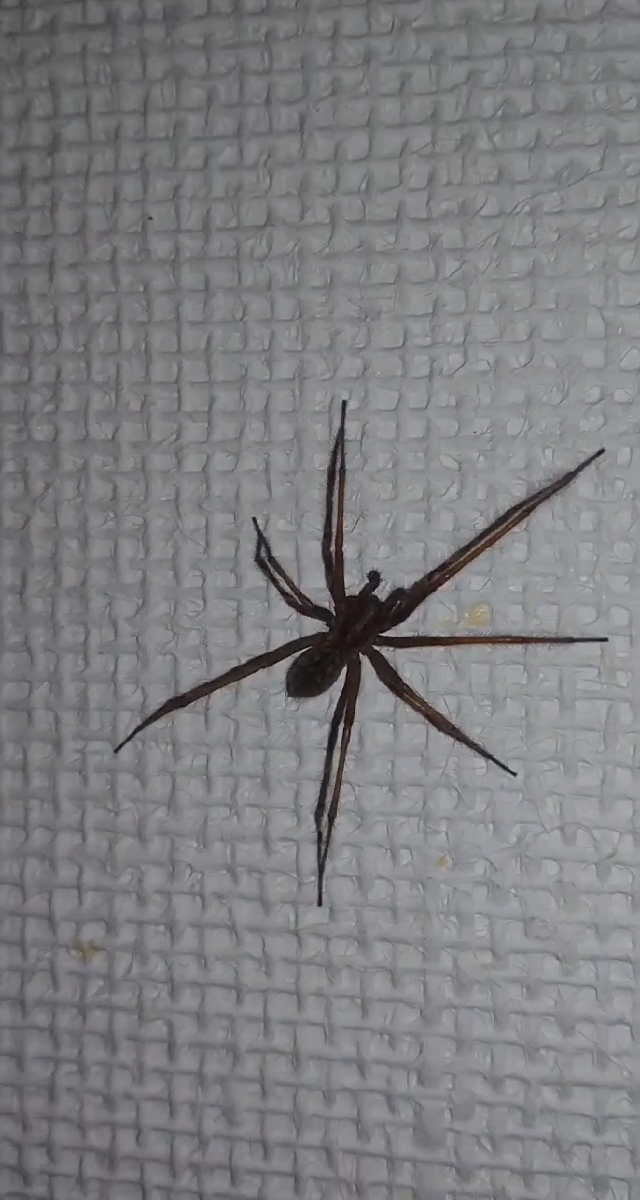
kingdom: Animalia
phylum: Arthropoda
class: Arachnida
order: Araneae
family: Agelenidae
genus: Eratigena
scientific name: Eratigena atrica
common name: Giant house spider
